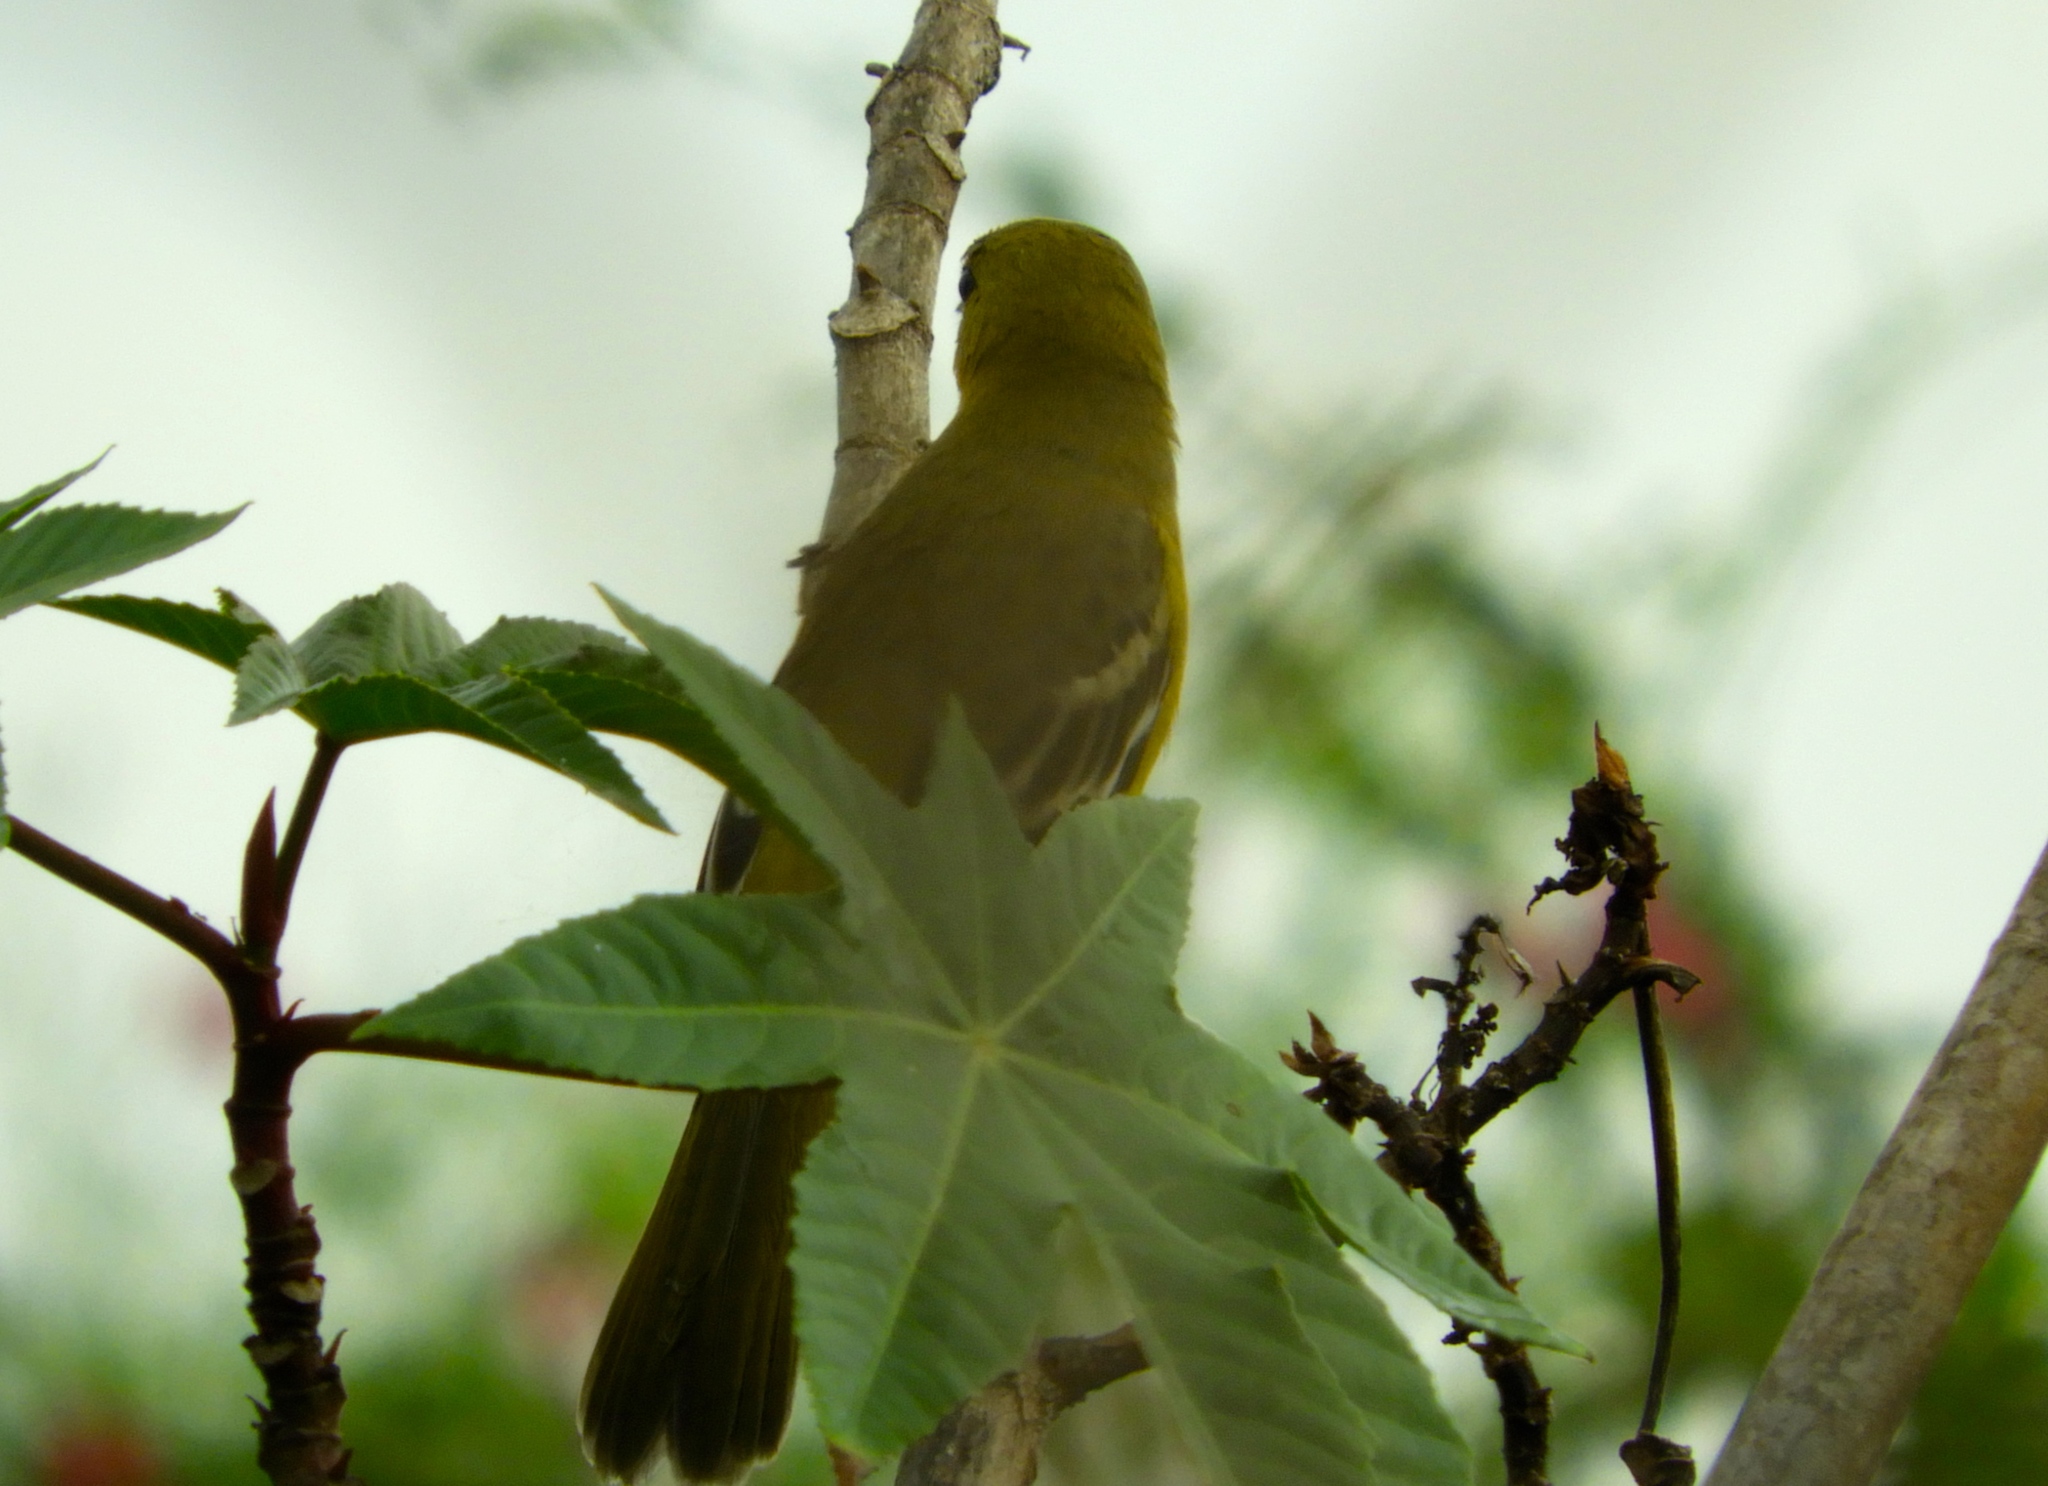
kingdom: Animalia
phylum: Chordata
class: Aves
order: Passeriformes
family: Icteridae
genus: Icterus
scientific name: Icterus
